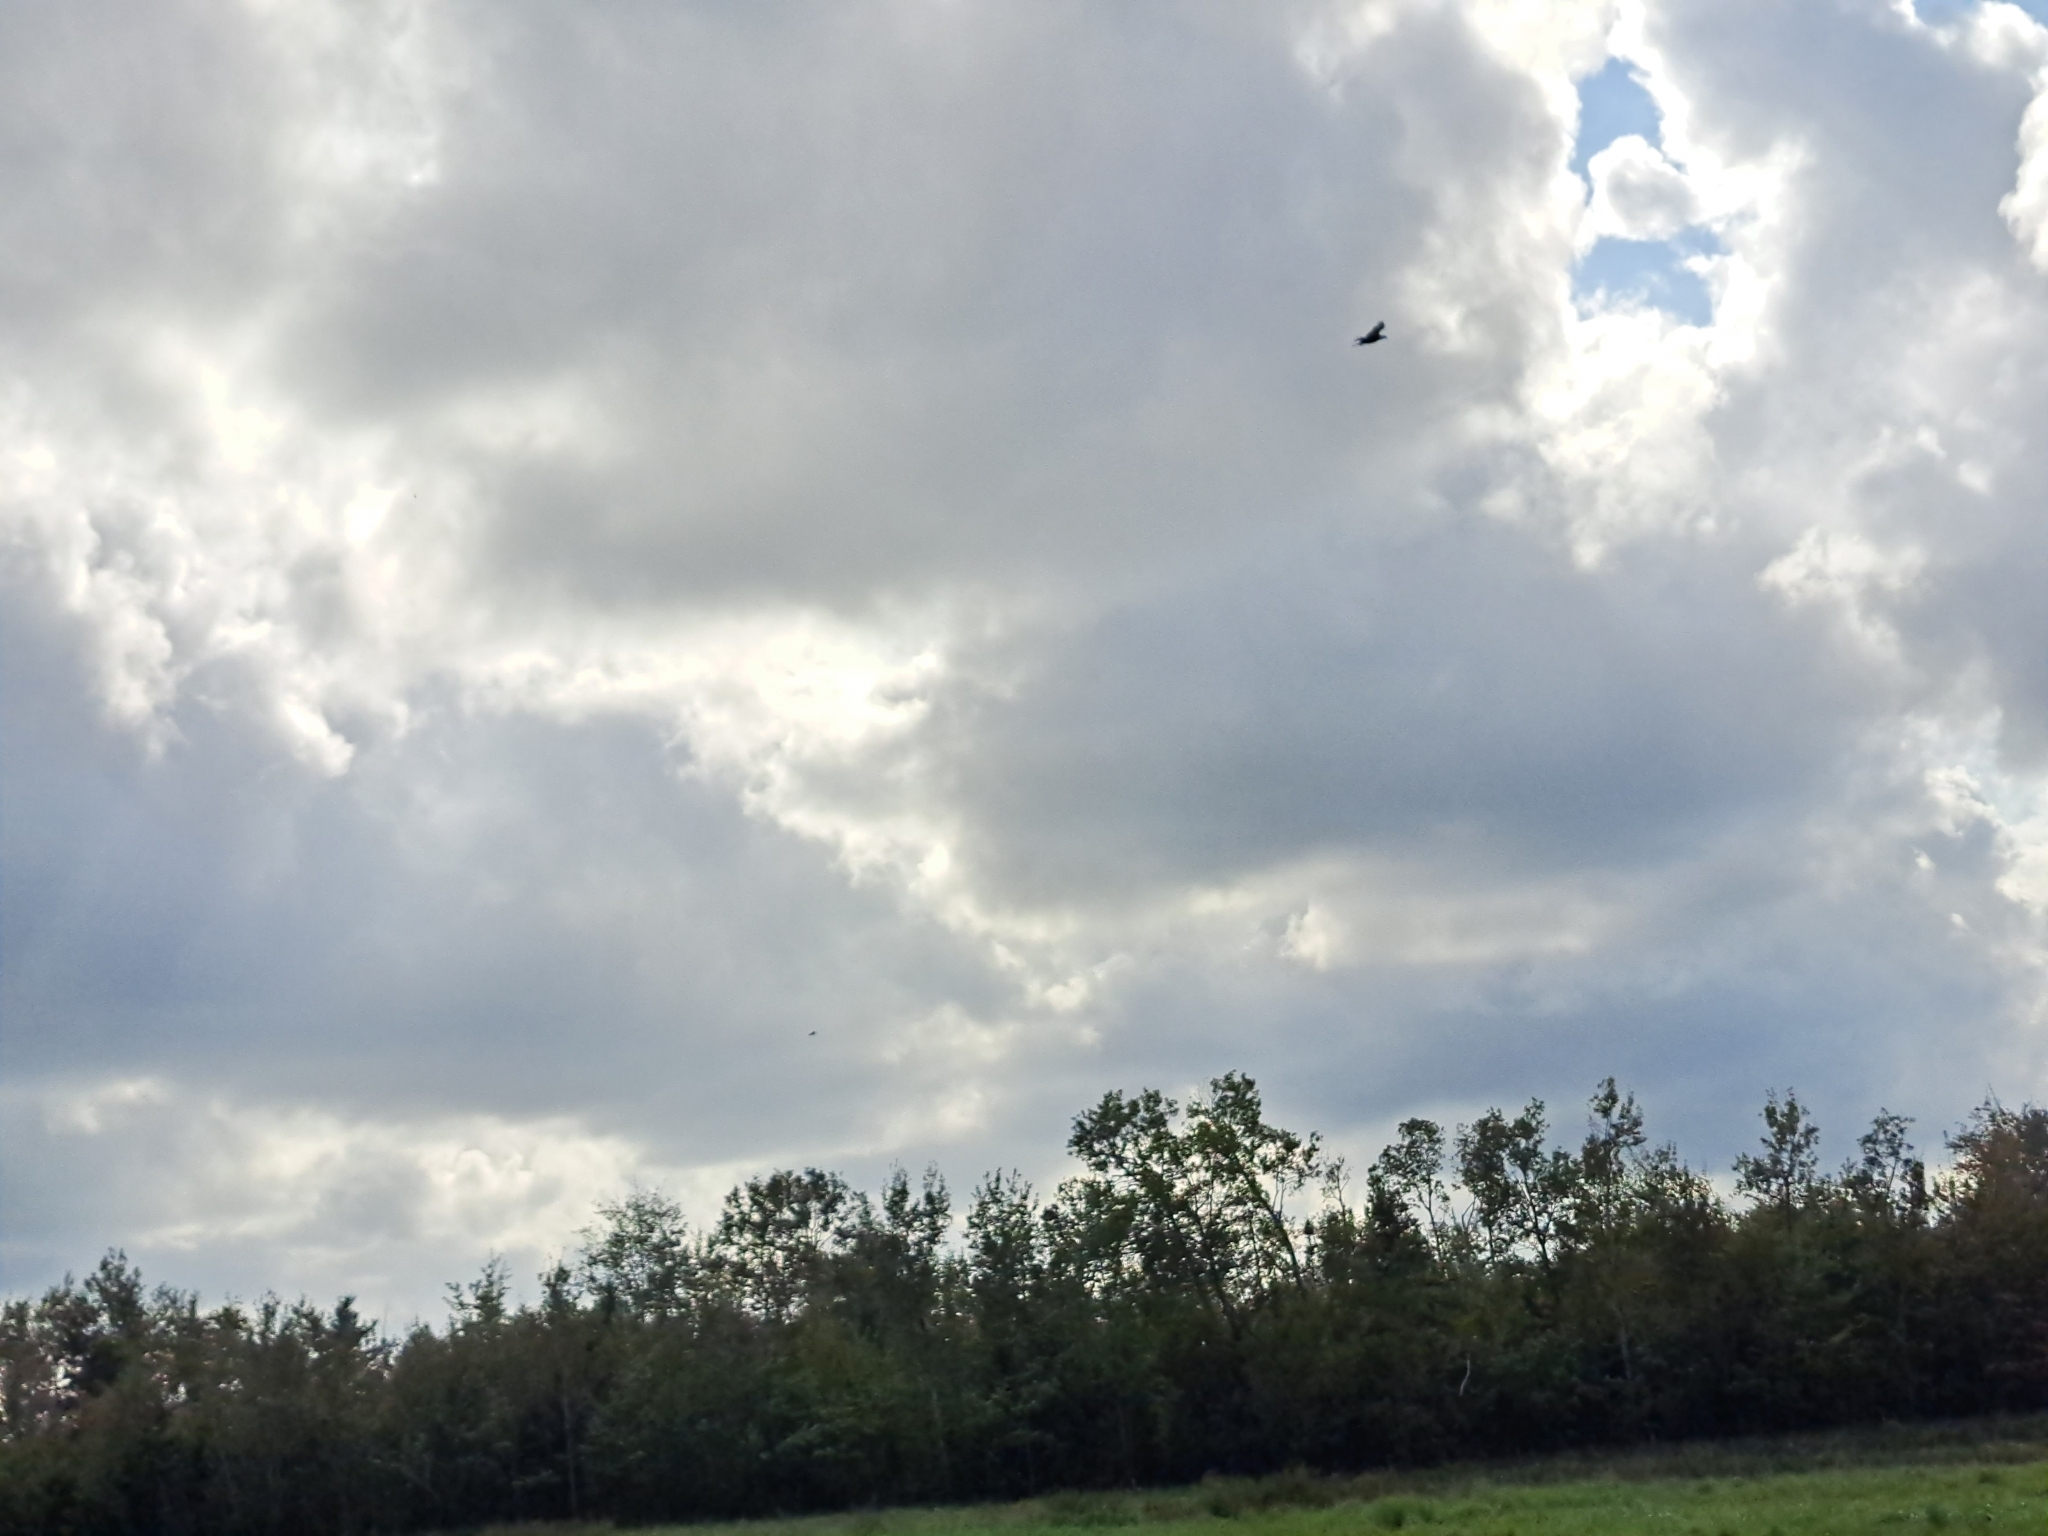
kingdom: Animalia
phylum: Chordata
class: Aves
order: Accipitriformes
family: Accipitridae
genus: Haliaeetus
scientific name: Haliaeetus leucocephalus
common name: Bald eagle
